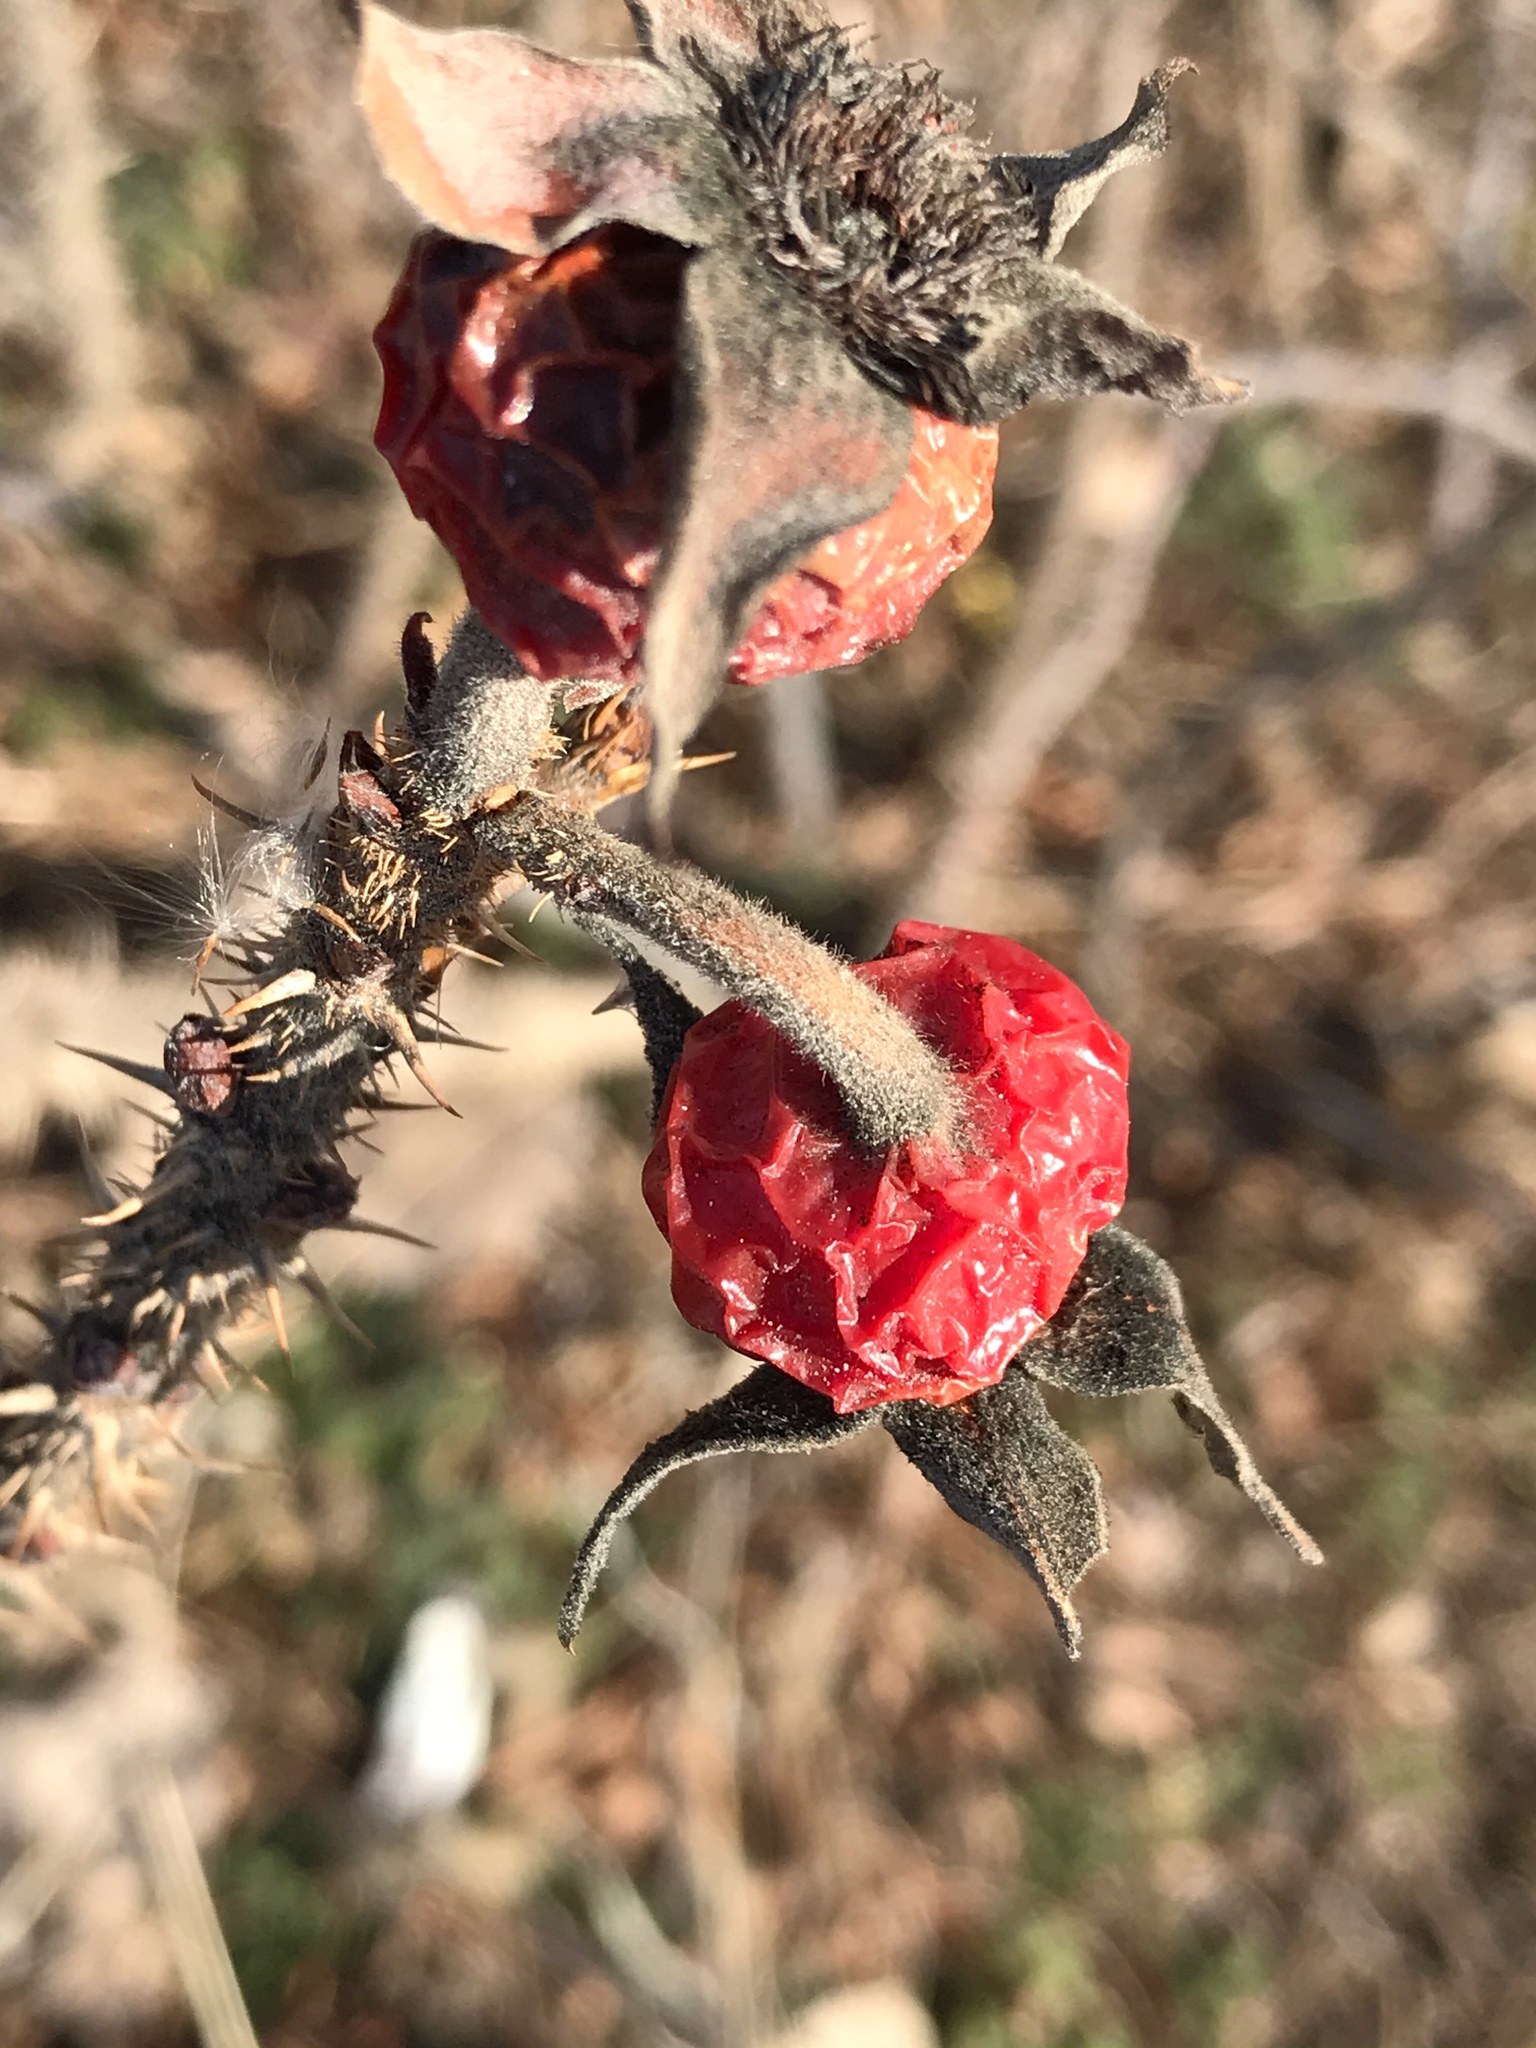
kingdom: Plantae
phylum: Tracheophyta
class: Magnoliopsida
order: Rosales
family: Rosaceae
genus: Rosa
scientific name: Rosa rugosa
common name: Japanese rose
